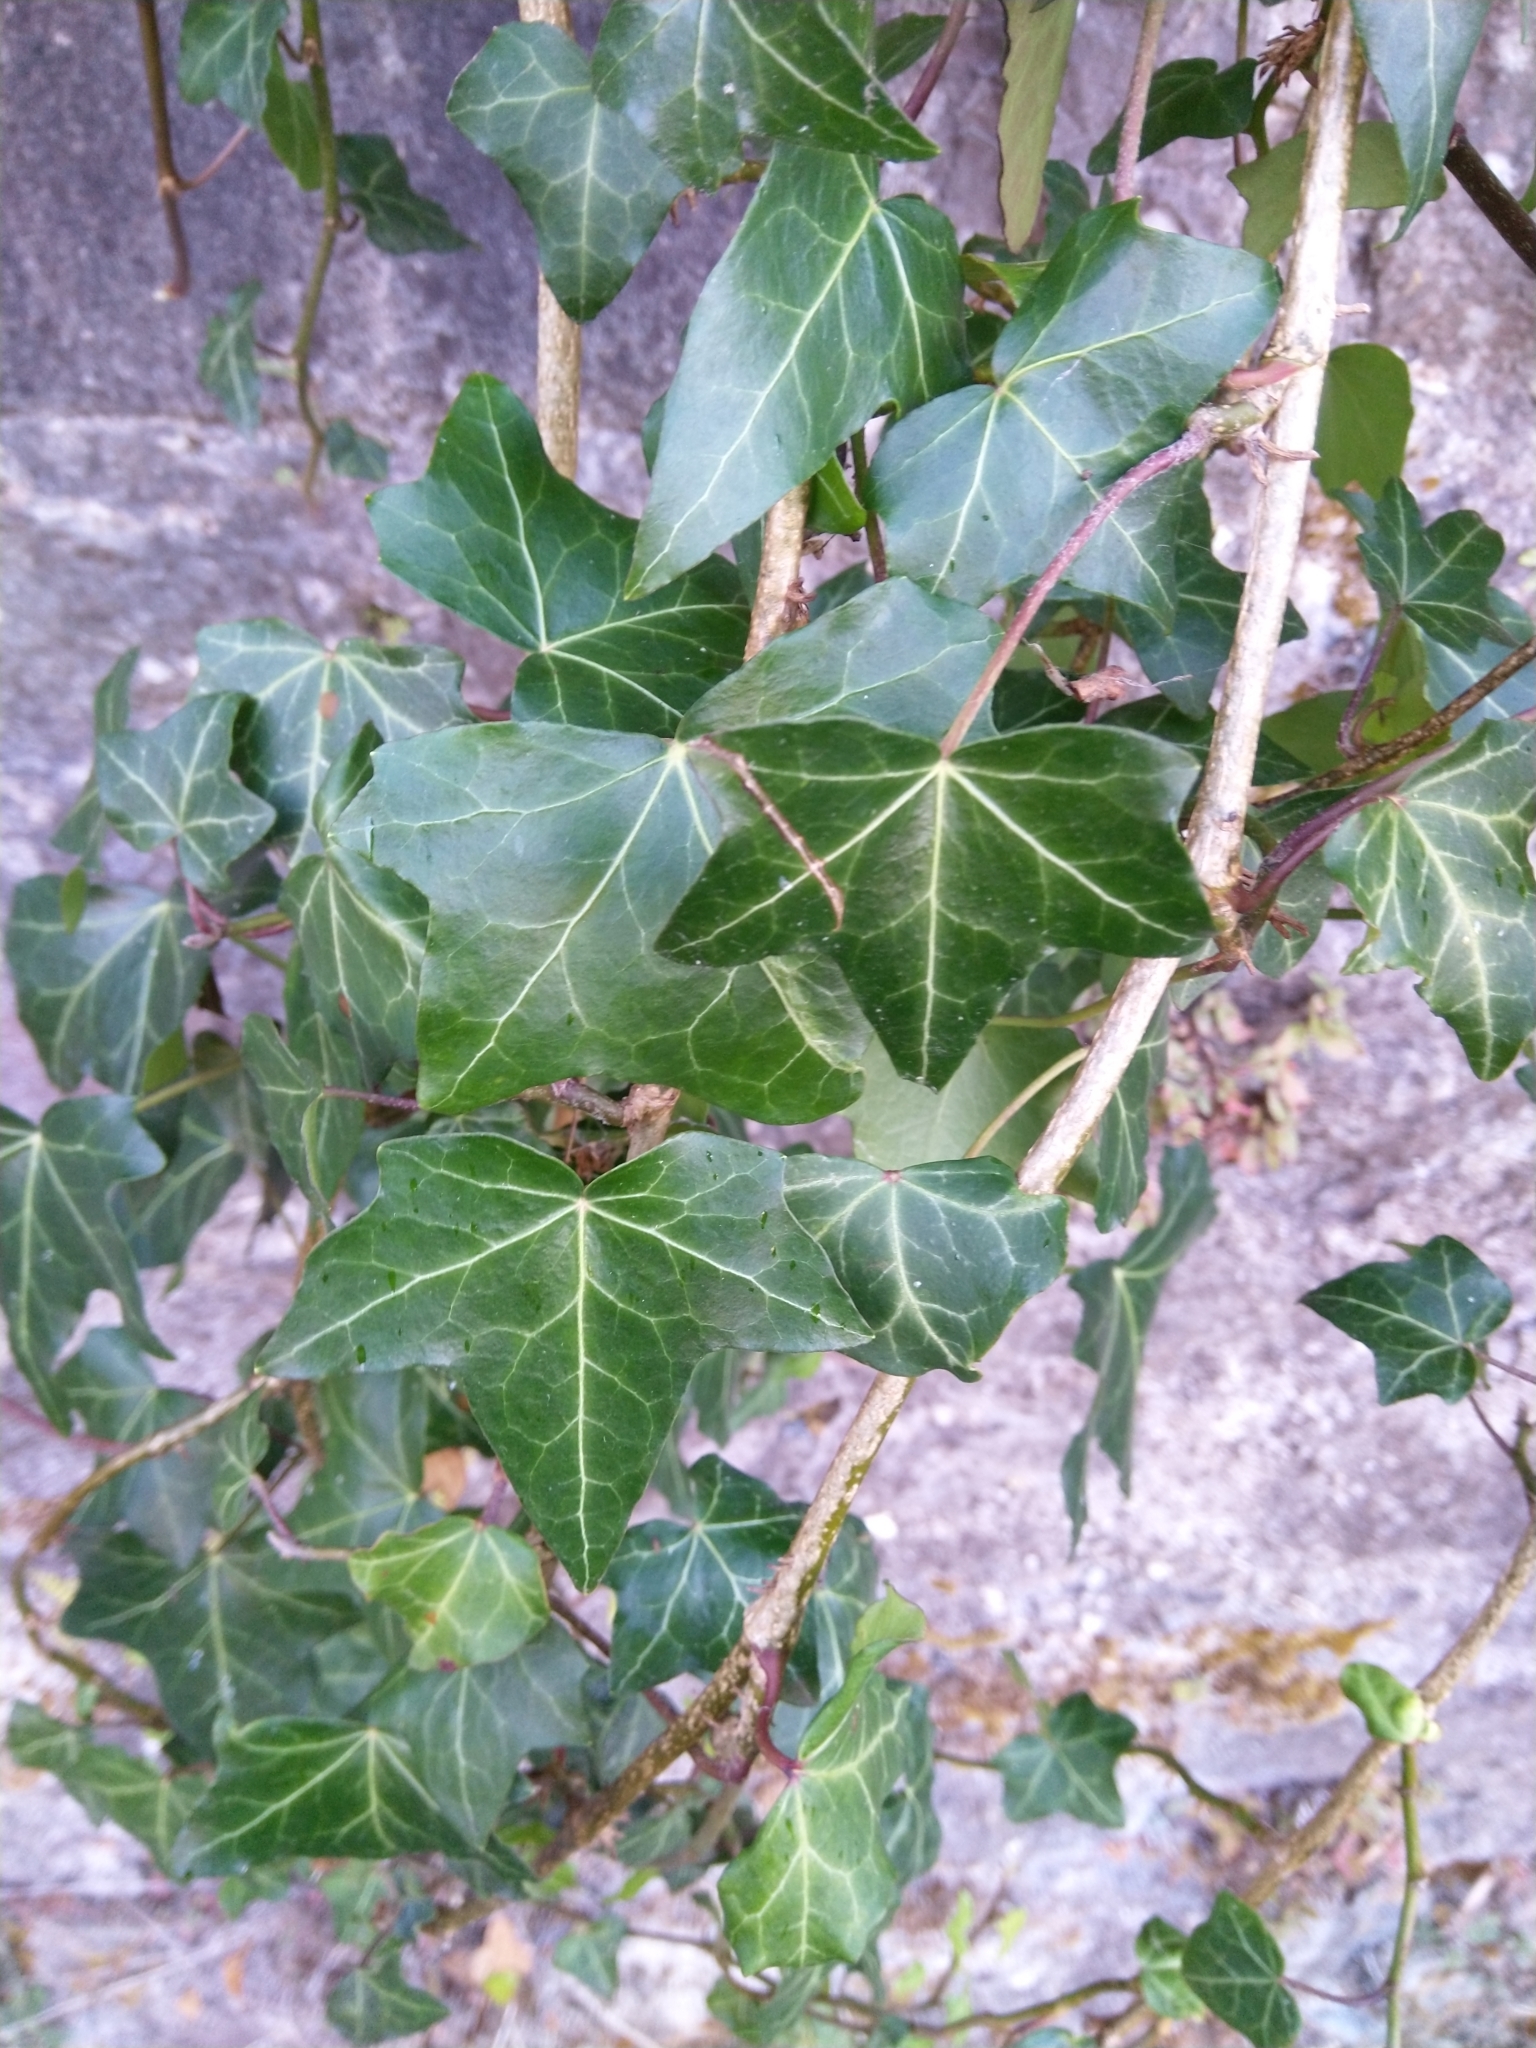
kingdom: Plantae
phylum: Tracheophyta
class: Magnoliopsida
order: Apiales
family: Araliaceae
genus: Hedera
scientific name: Hedera helix
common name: Ivy
